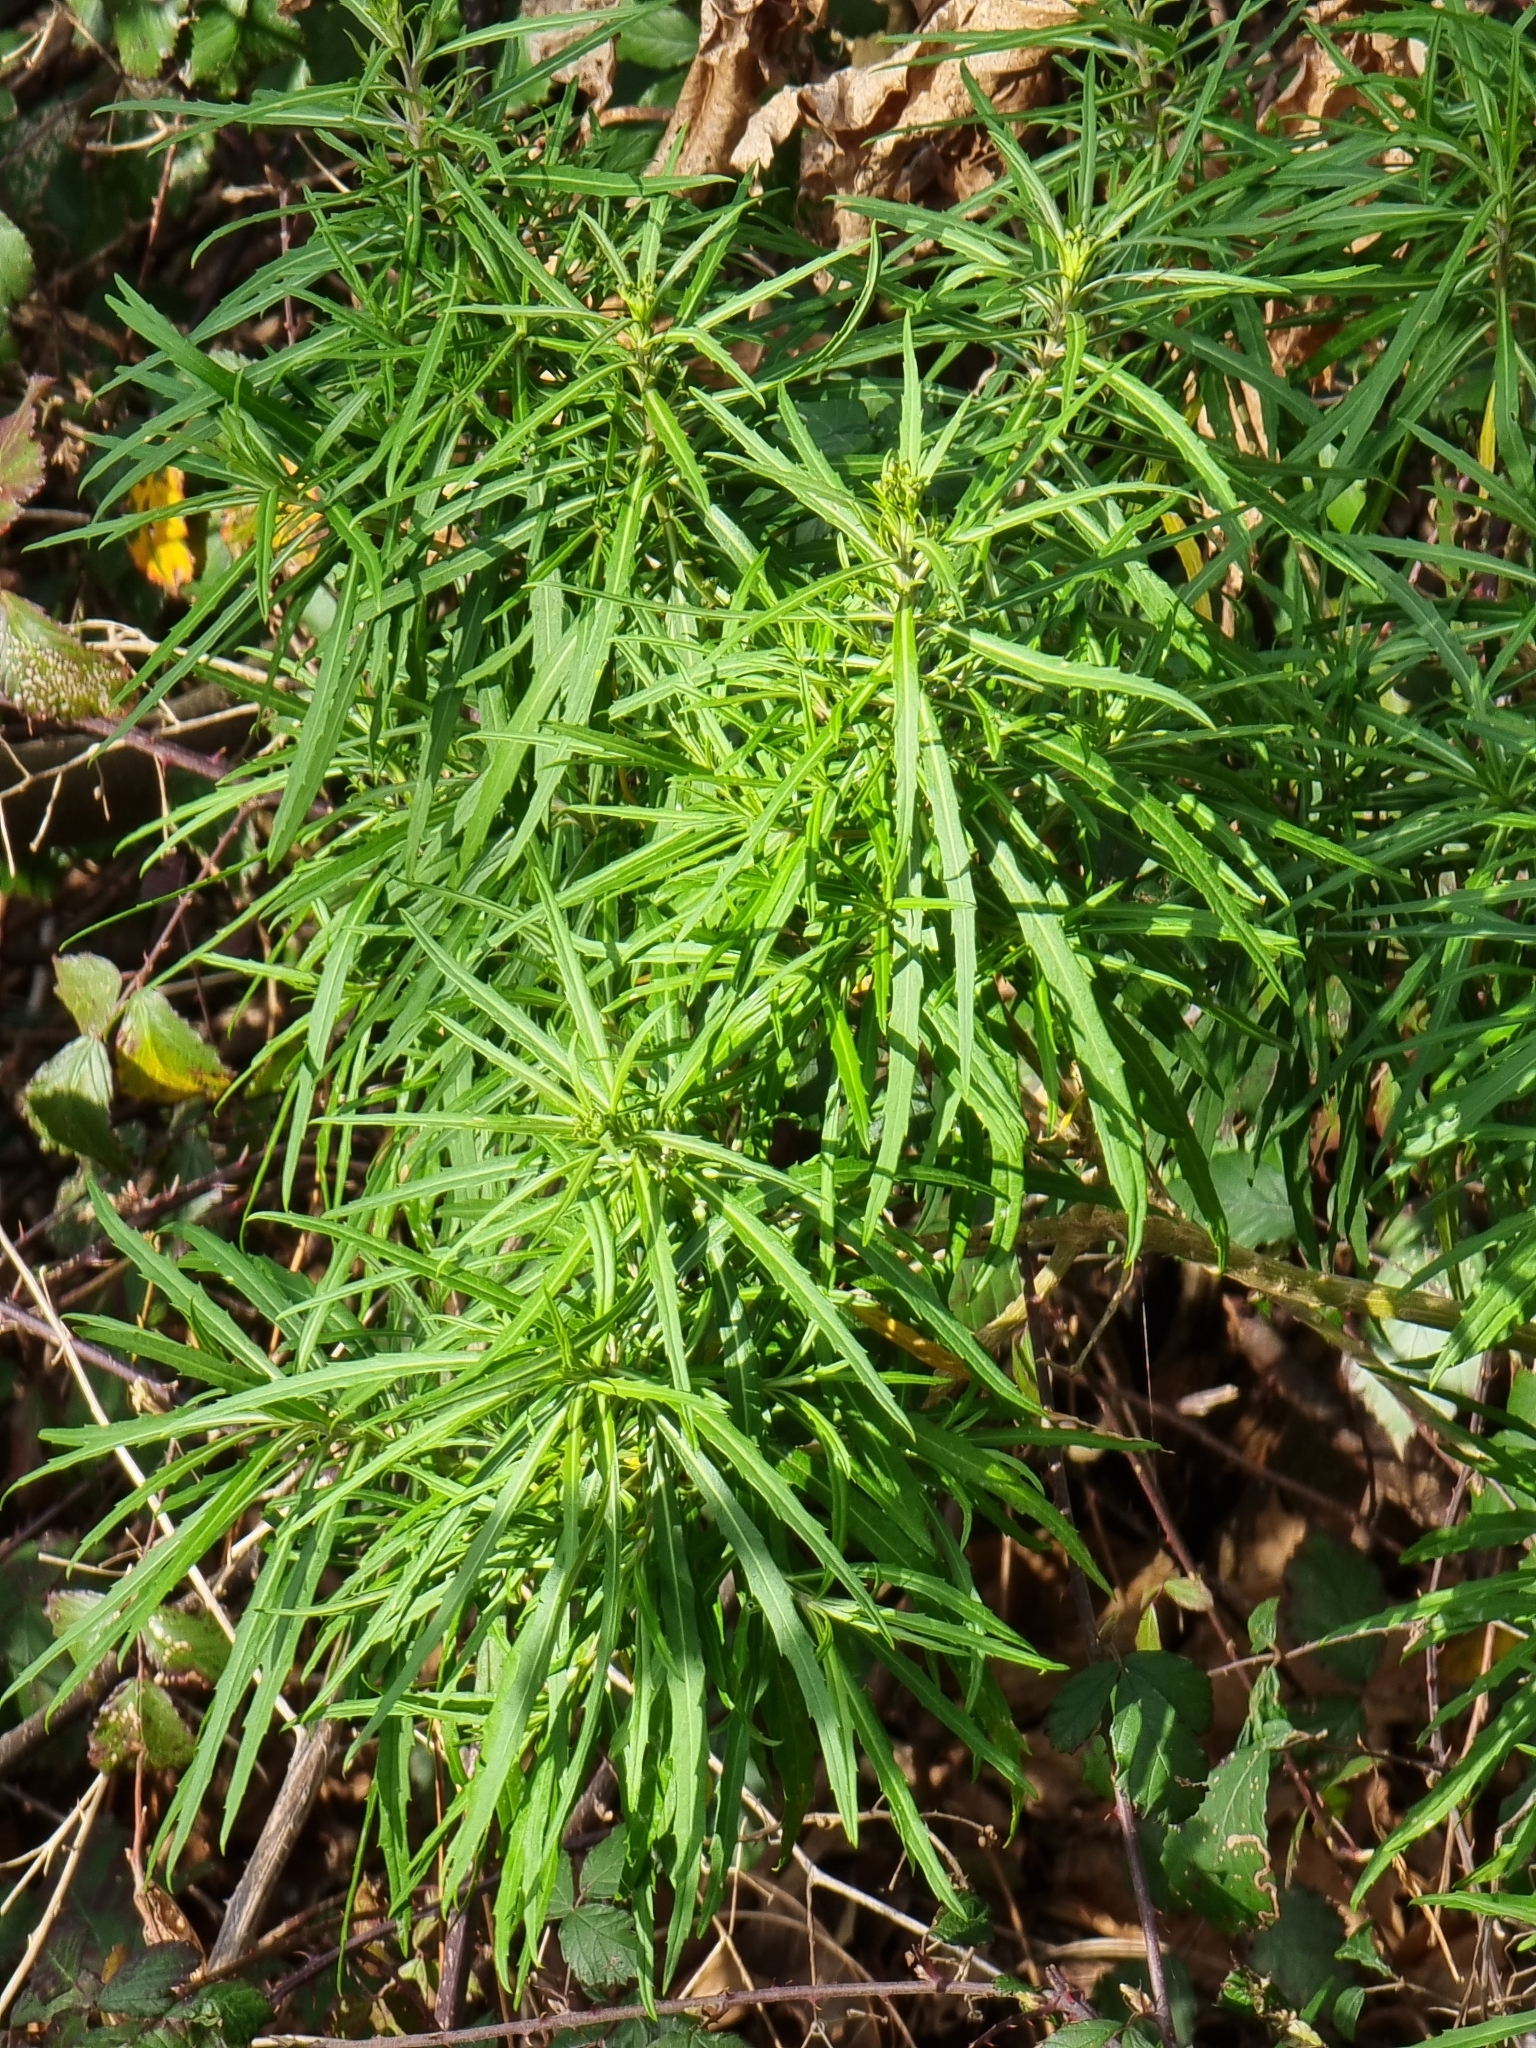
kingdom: Plantae
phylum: Tracheophyta
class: Magnoliopsida
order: Brassicales
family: Brassicaceae
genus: Erysimum
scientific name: Erysimum bicolor
